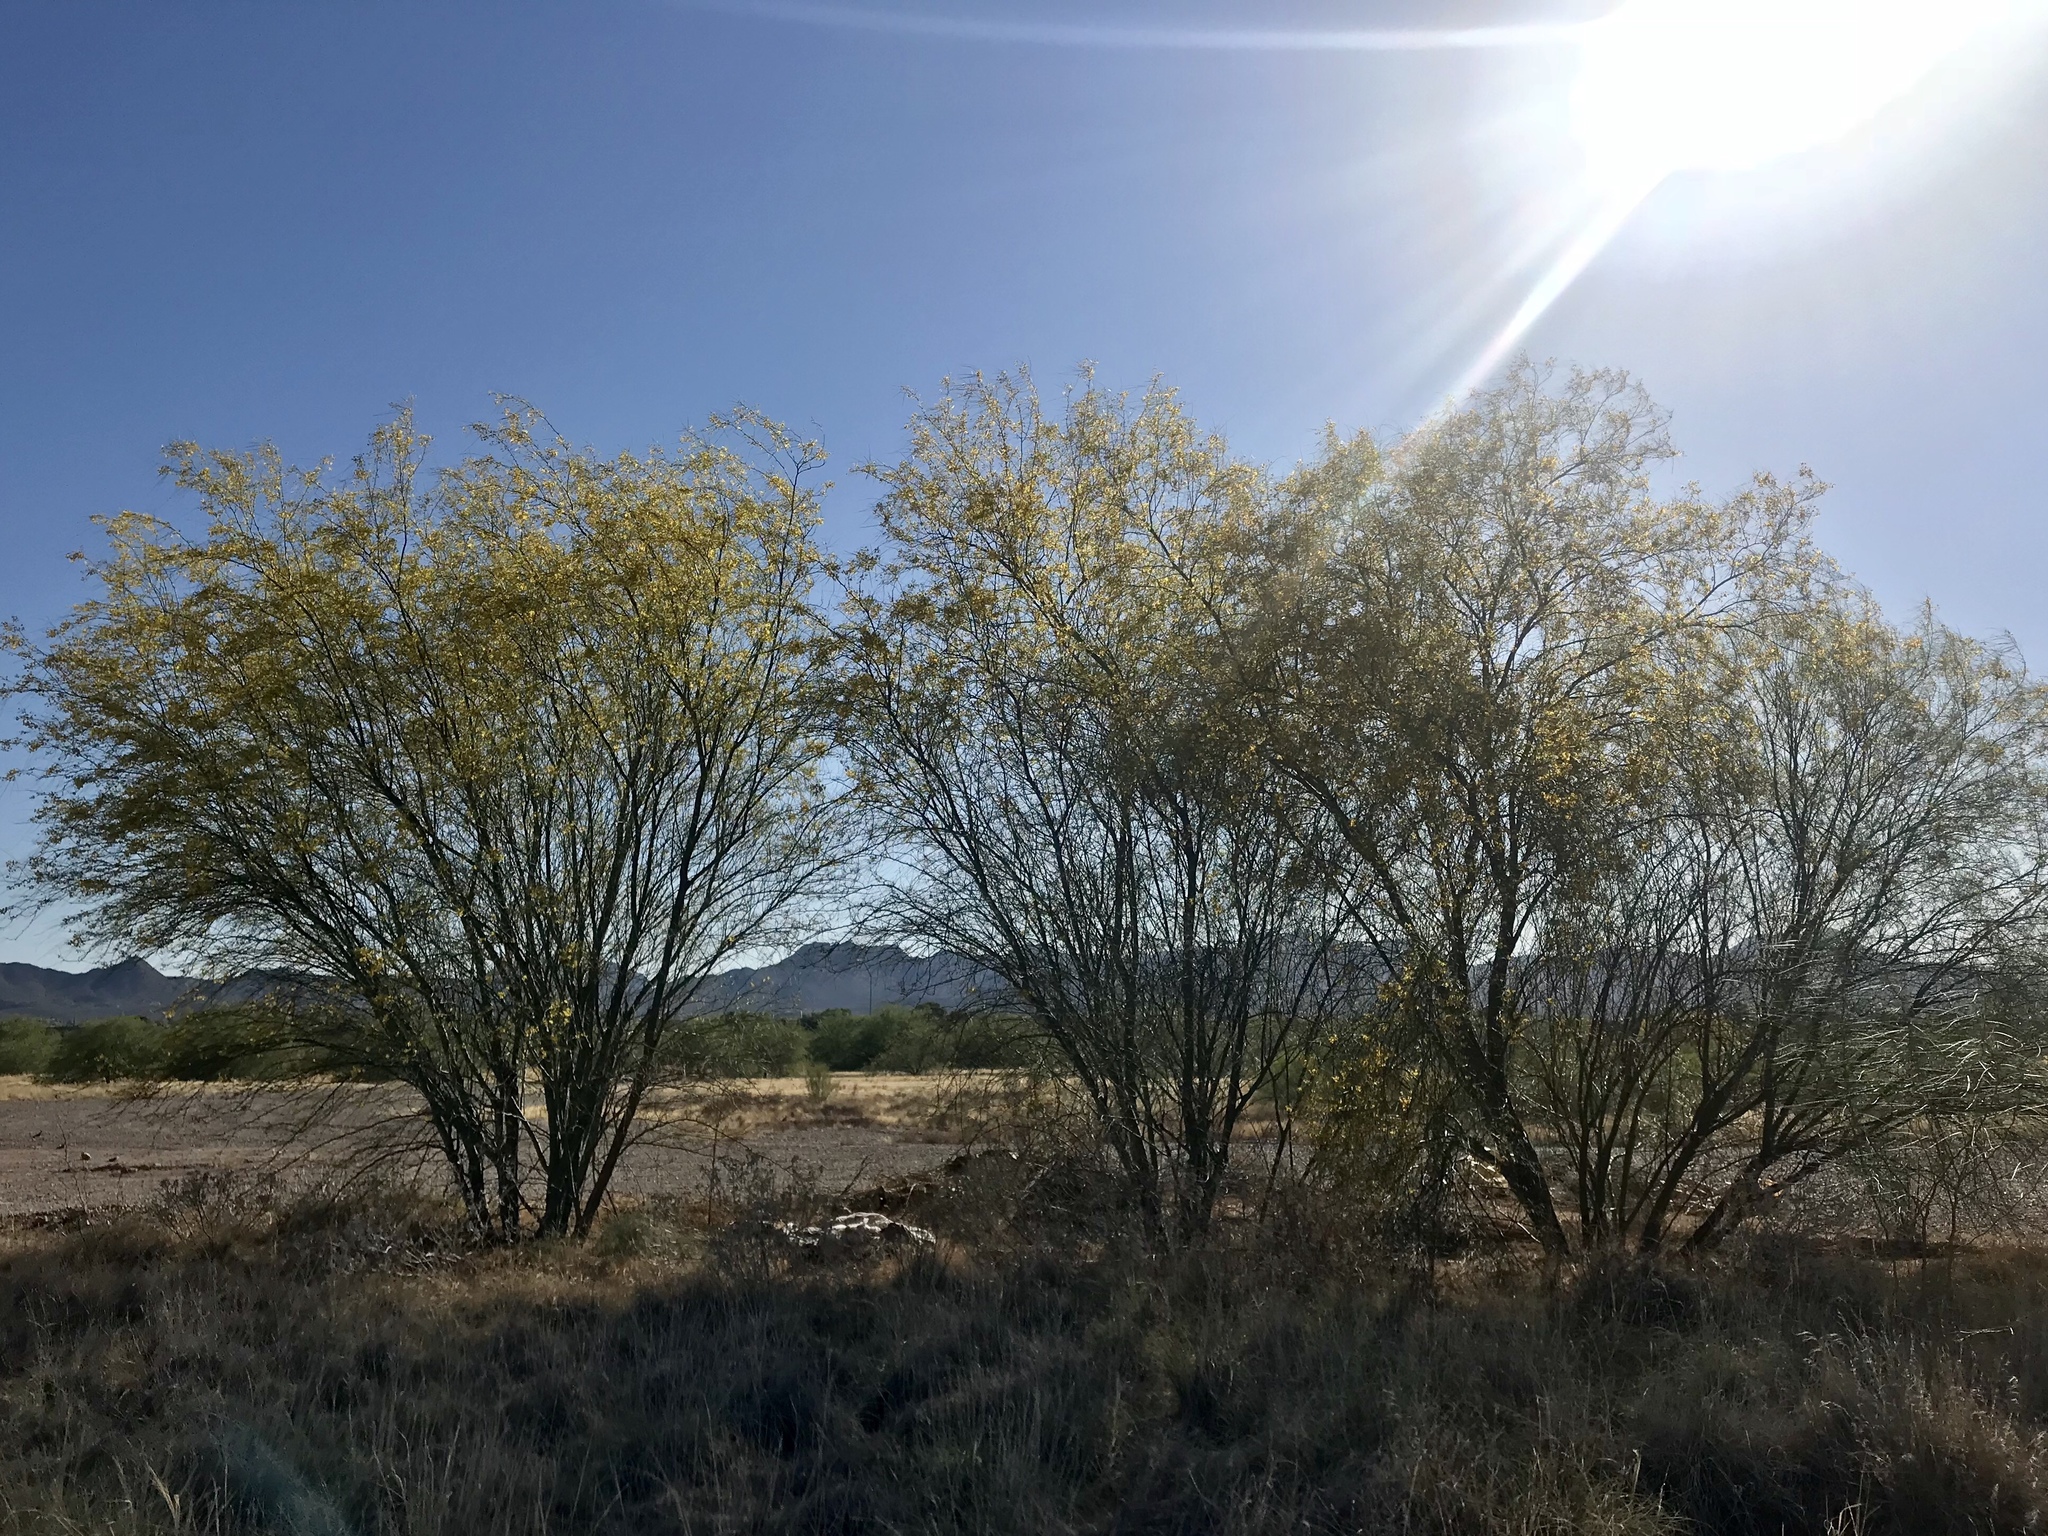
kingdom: Plantae
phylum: Tracheophyta
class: Magnoliopsida
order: Fabales
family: Fabaceae
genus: Parkinsonia
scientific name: Parkinsonia aculeata
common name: Jerusalem thorn
